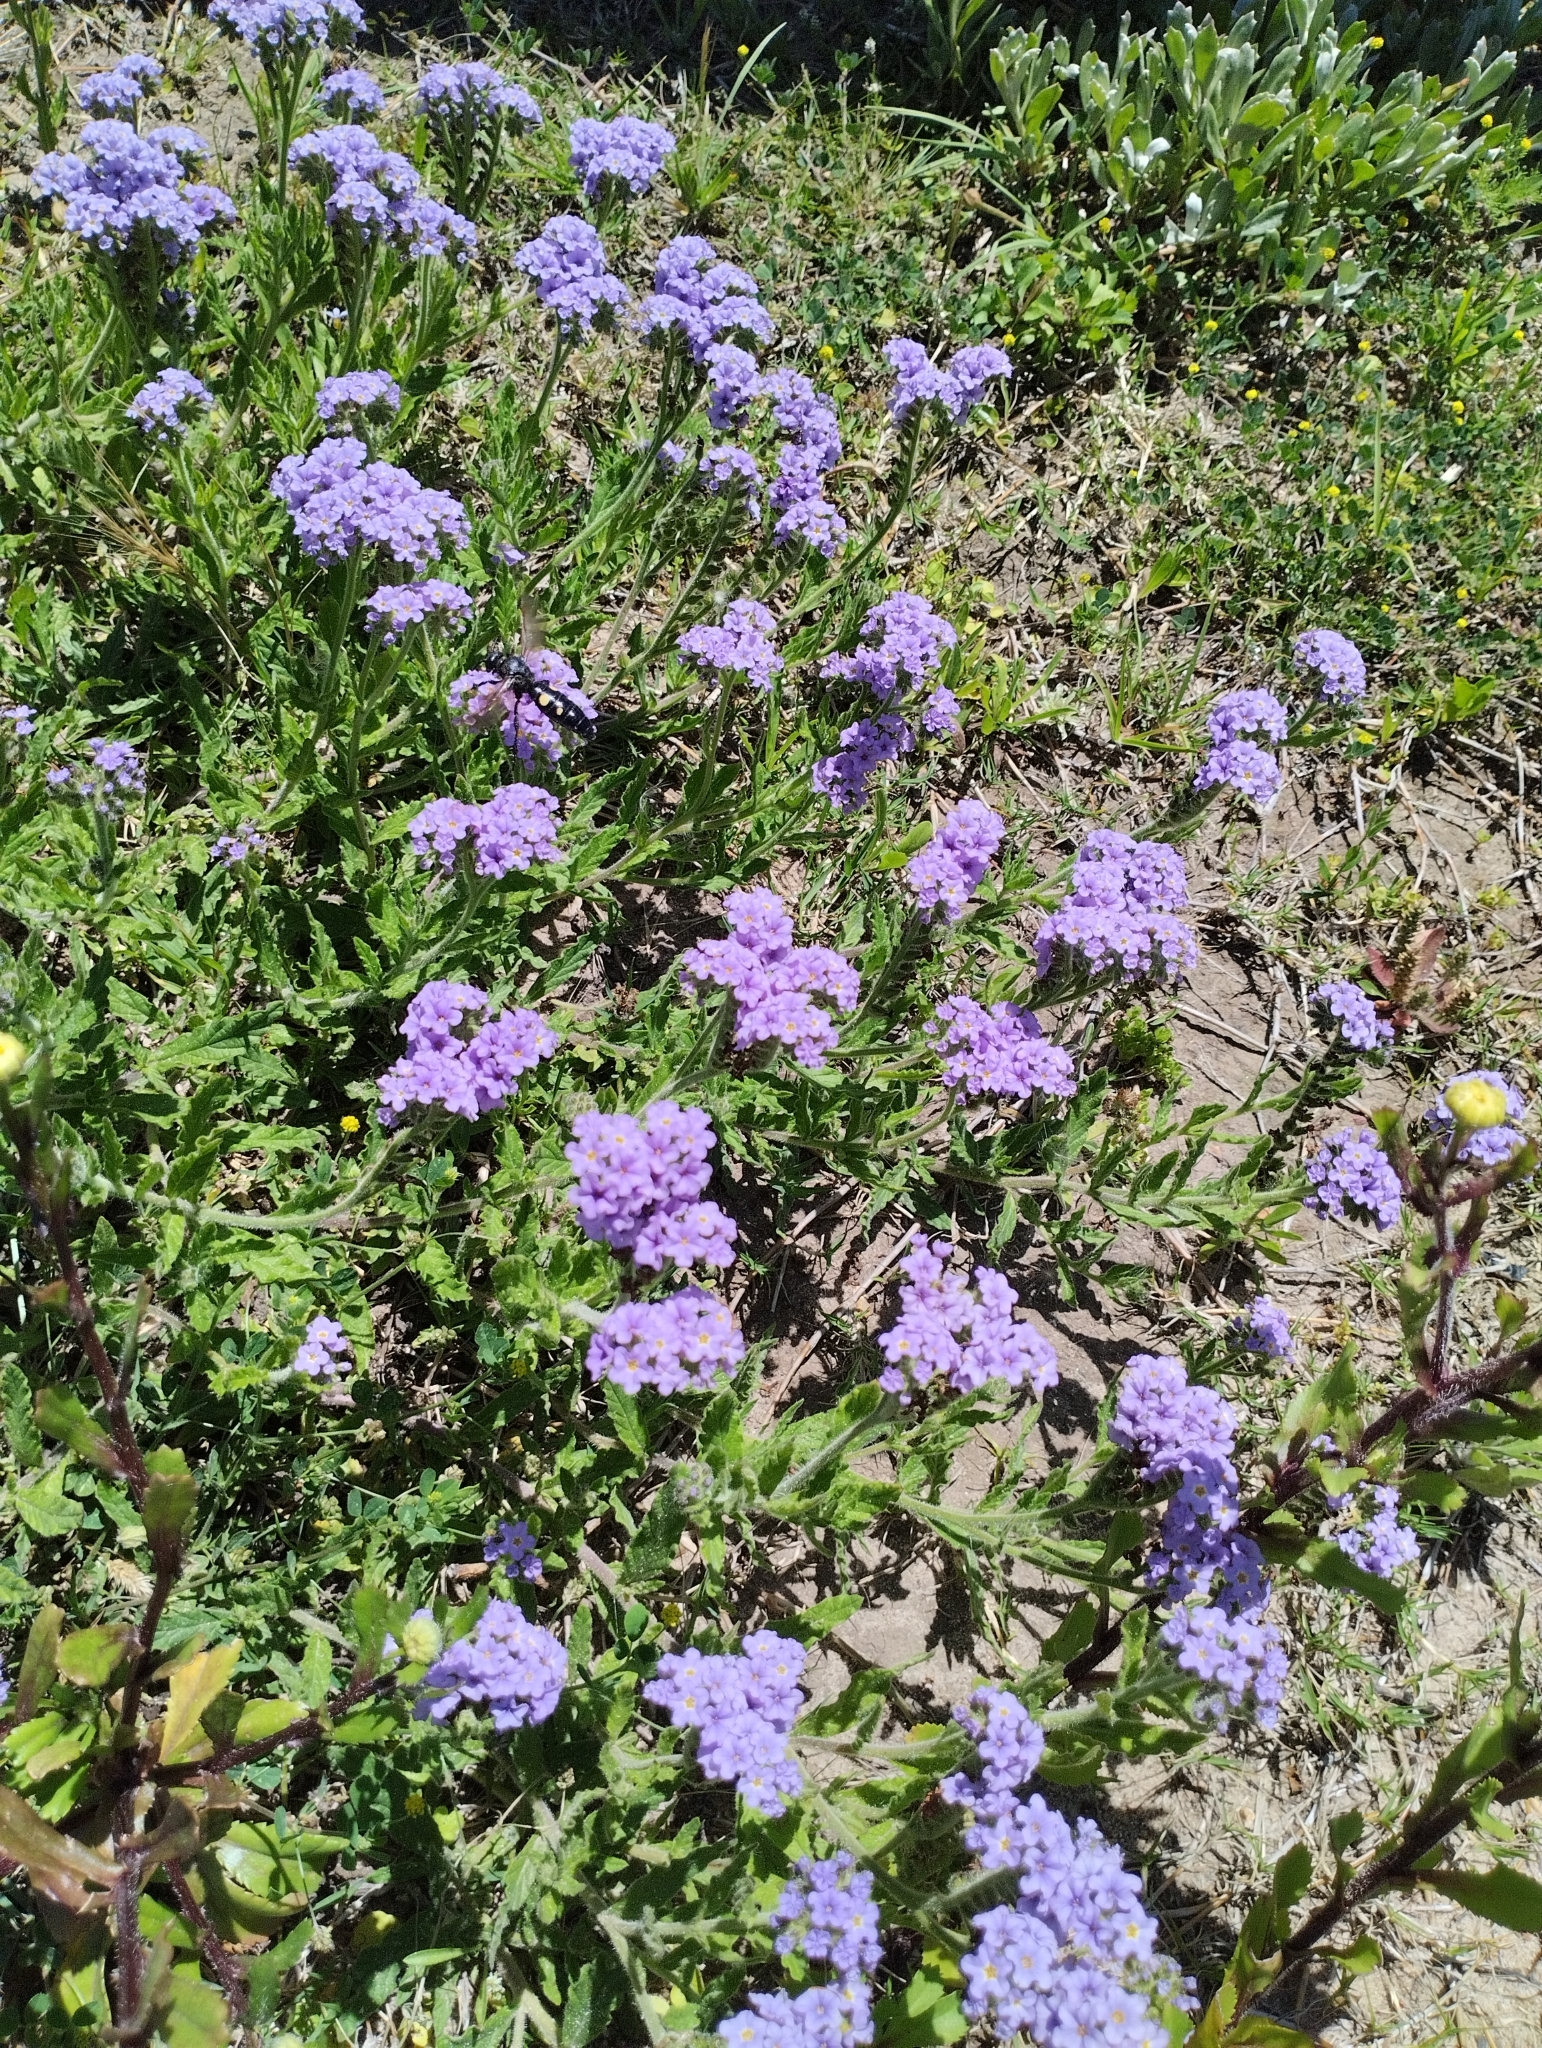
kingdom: Plantae
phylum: Tracheophyta
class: Magnoliopsida
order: Boraginales
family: Heliotropiaceae
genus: Heliotropium
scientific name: Heliotropium amplexicaule
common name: Clasping heliotrope
